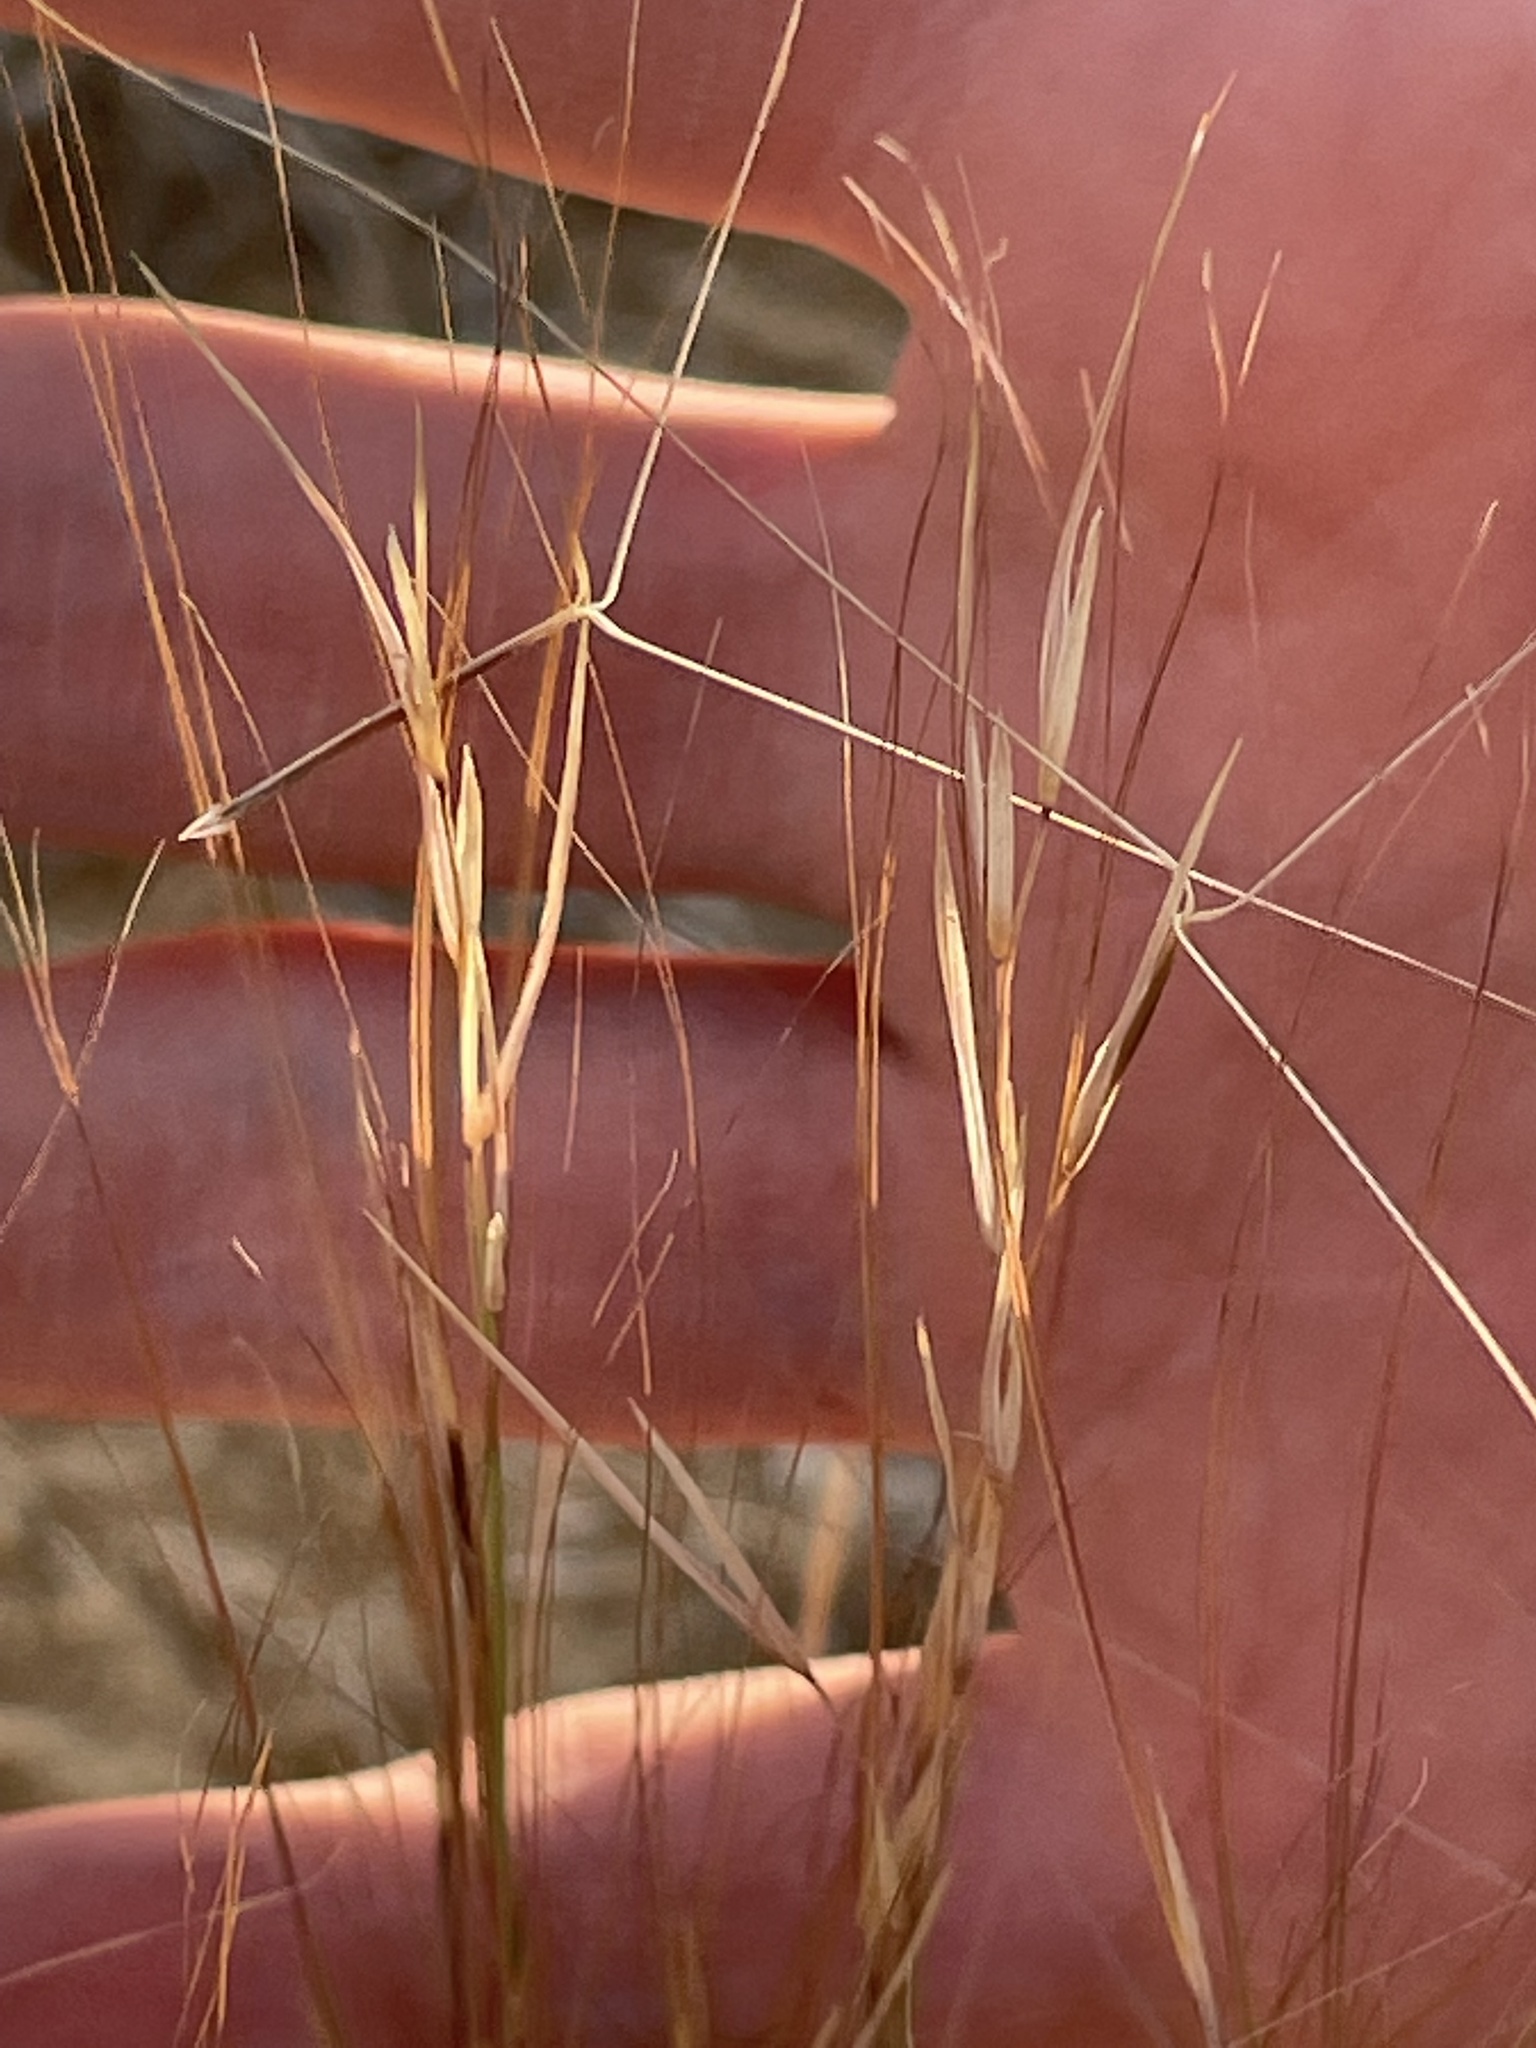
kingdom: Plantae
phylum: Tracheophyta
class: Liliopsida
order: Poales
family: Poaceae
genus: Aristida
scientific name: Aristida purpurea
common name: Purple threeawn
